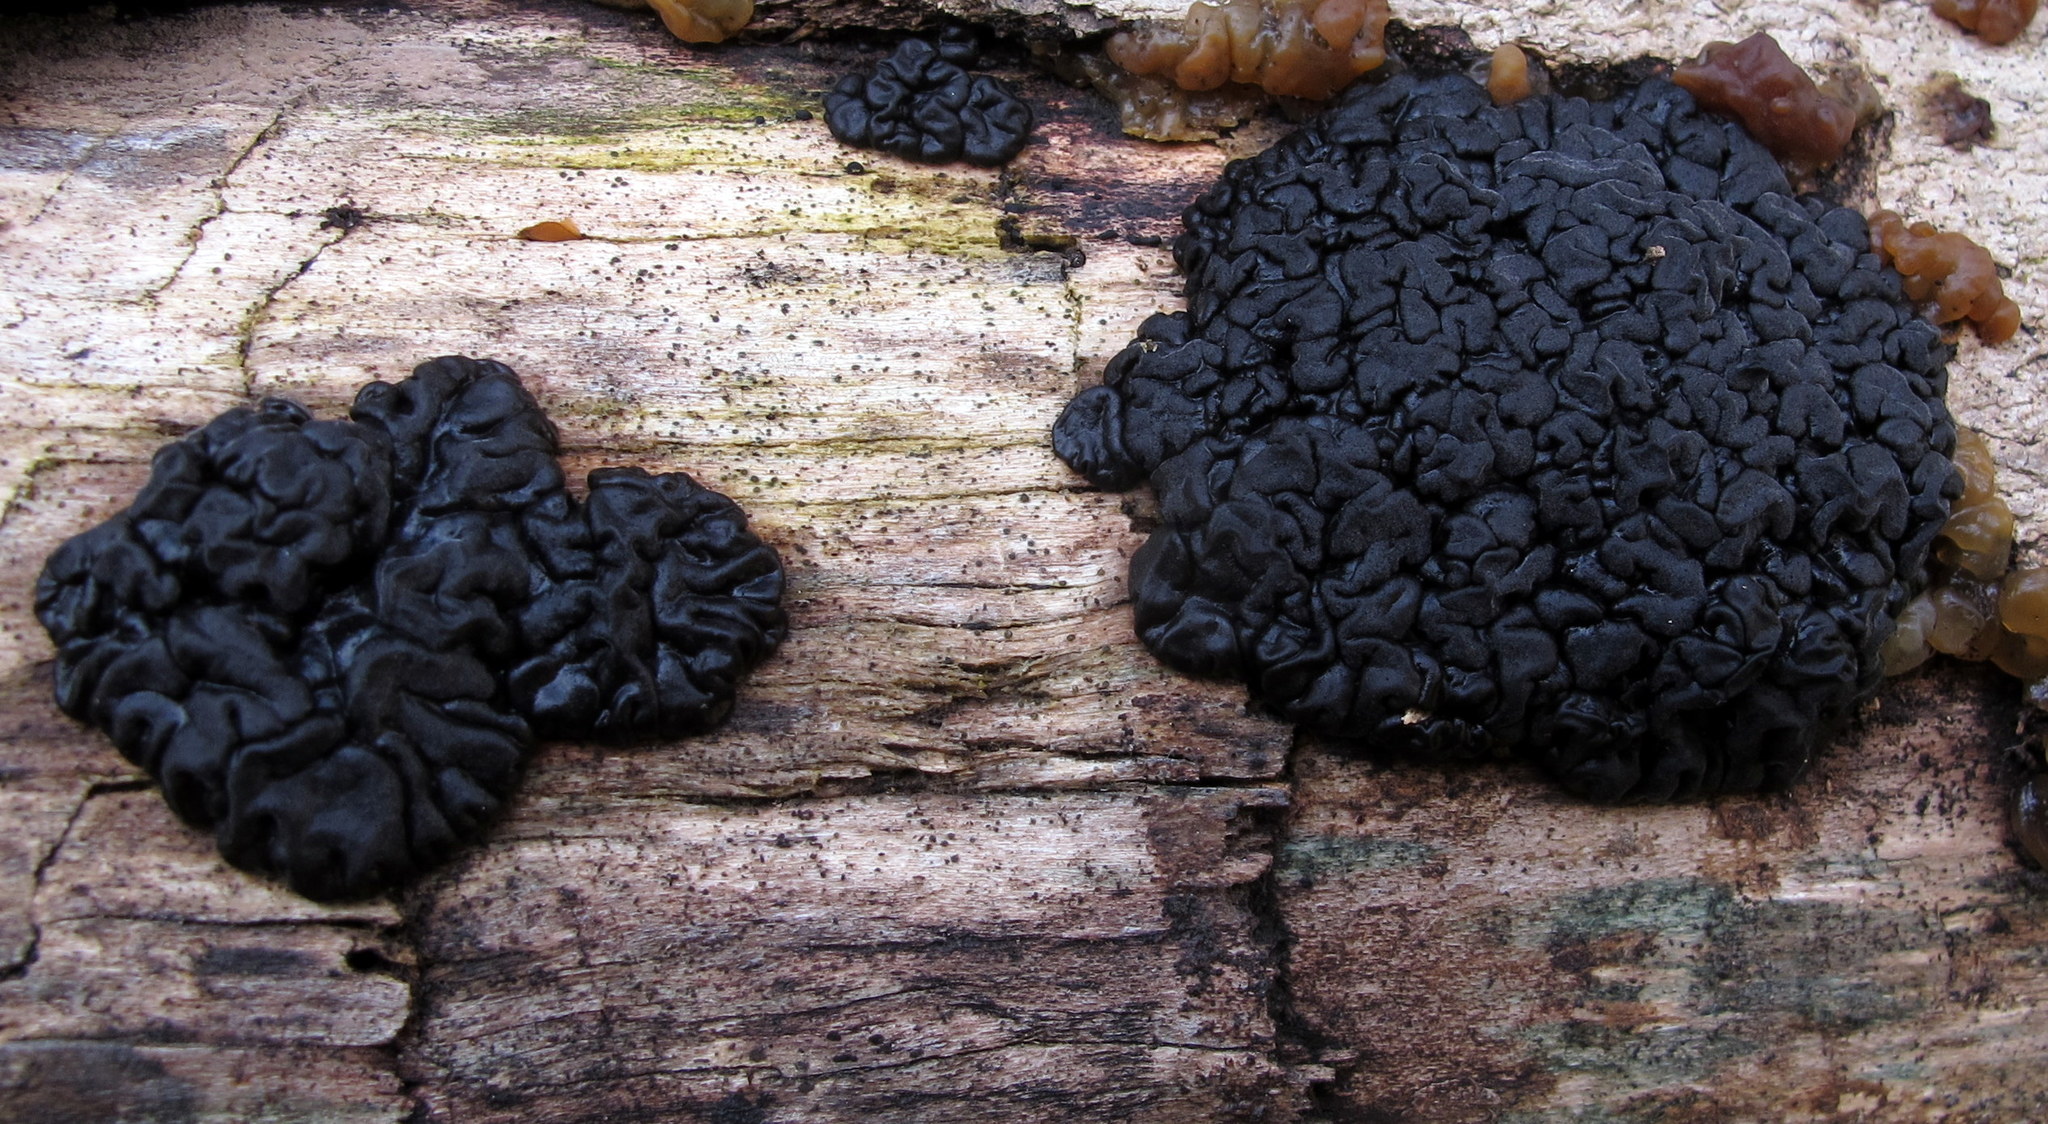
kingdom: Fungi
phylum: Basidiomycota
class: Agaricomycetes
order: Auriculariales
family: Auriculariaceae
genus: Exidia
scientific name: Exidia glandulosa
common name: Witches' butter
